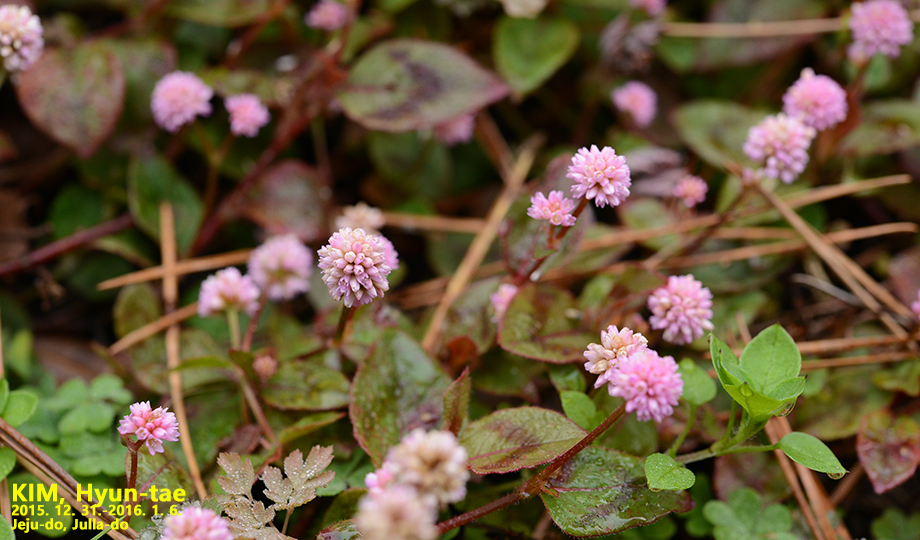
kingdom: Plantae
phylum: Tracheophyta
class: Magnoliopsida
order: Caryophyllales
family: Polygonaceae
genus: Persicaria
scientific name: Persicaria capitata
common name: Pinkhead smartweed
